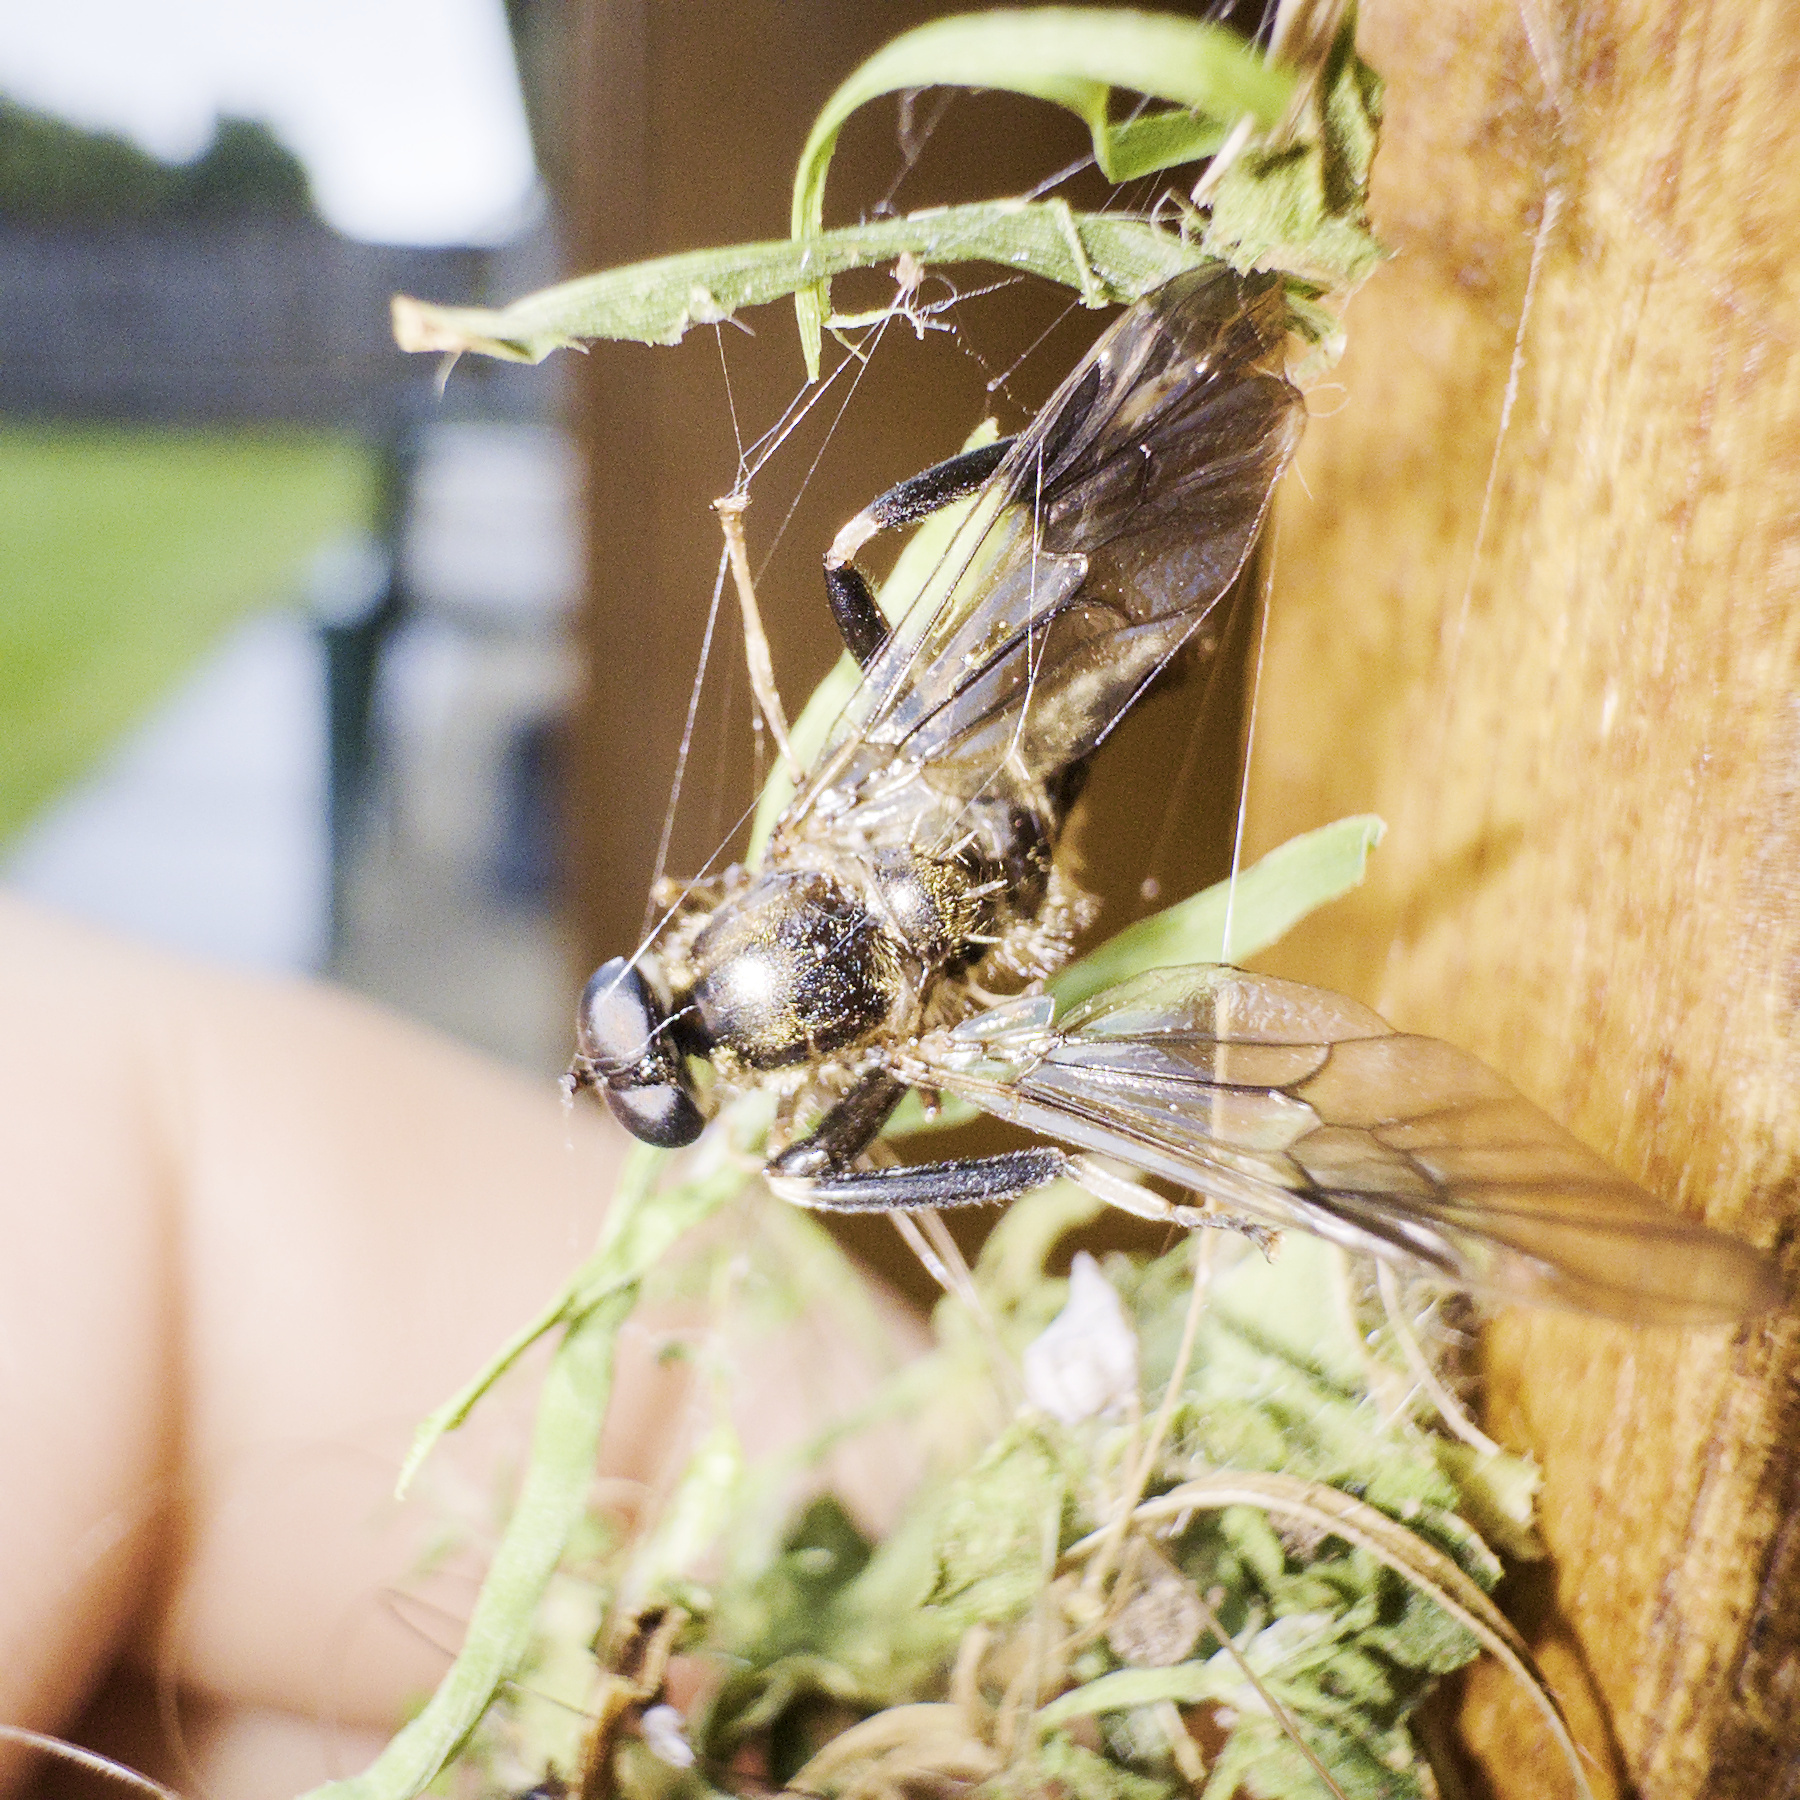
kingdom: Animalia
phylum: Arthropoda
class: Insecta
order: Diptera
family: Stratiomyidae
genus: Exaireta
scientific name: Exaireta spinigera
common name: Blue soldier fly
